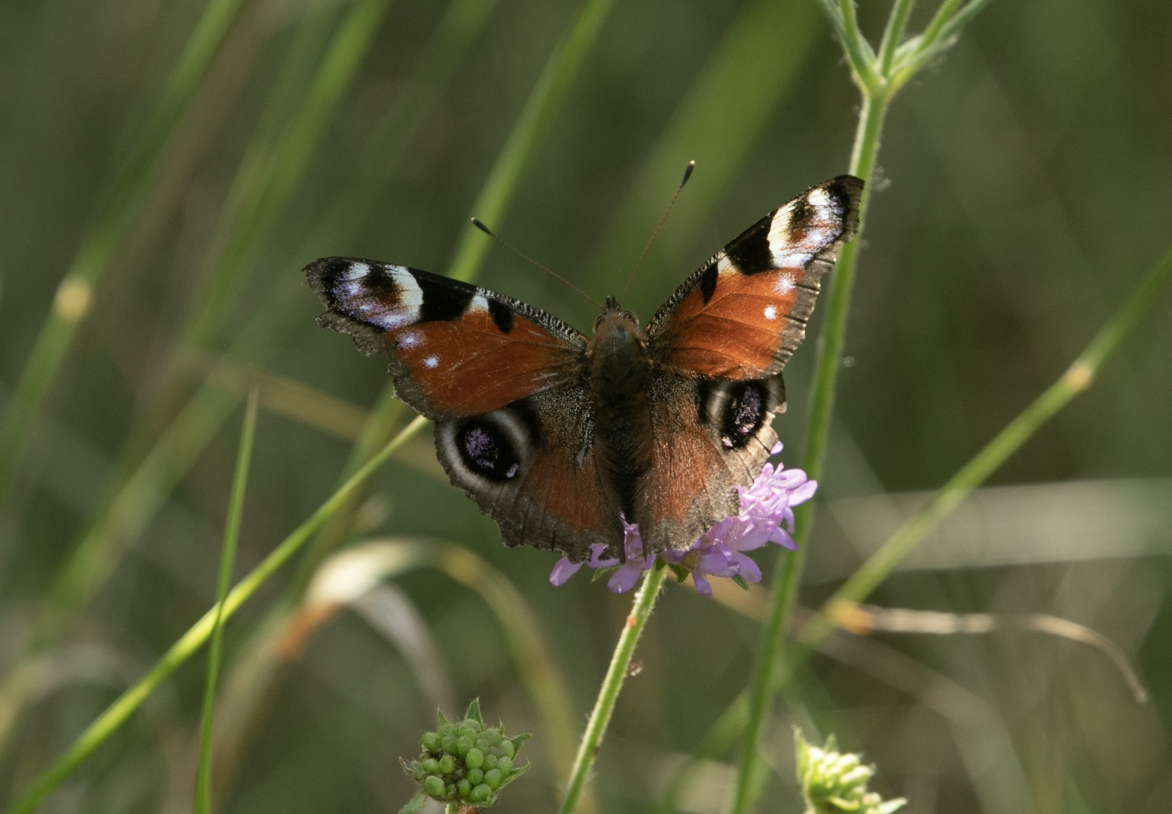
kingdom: Animalia
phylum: Arthropoda
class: Insecta
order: Lepidoptera
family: Nymphalidae
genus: Aglais
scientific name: Aglais io
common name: Peacock
